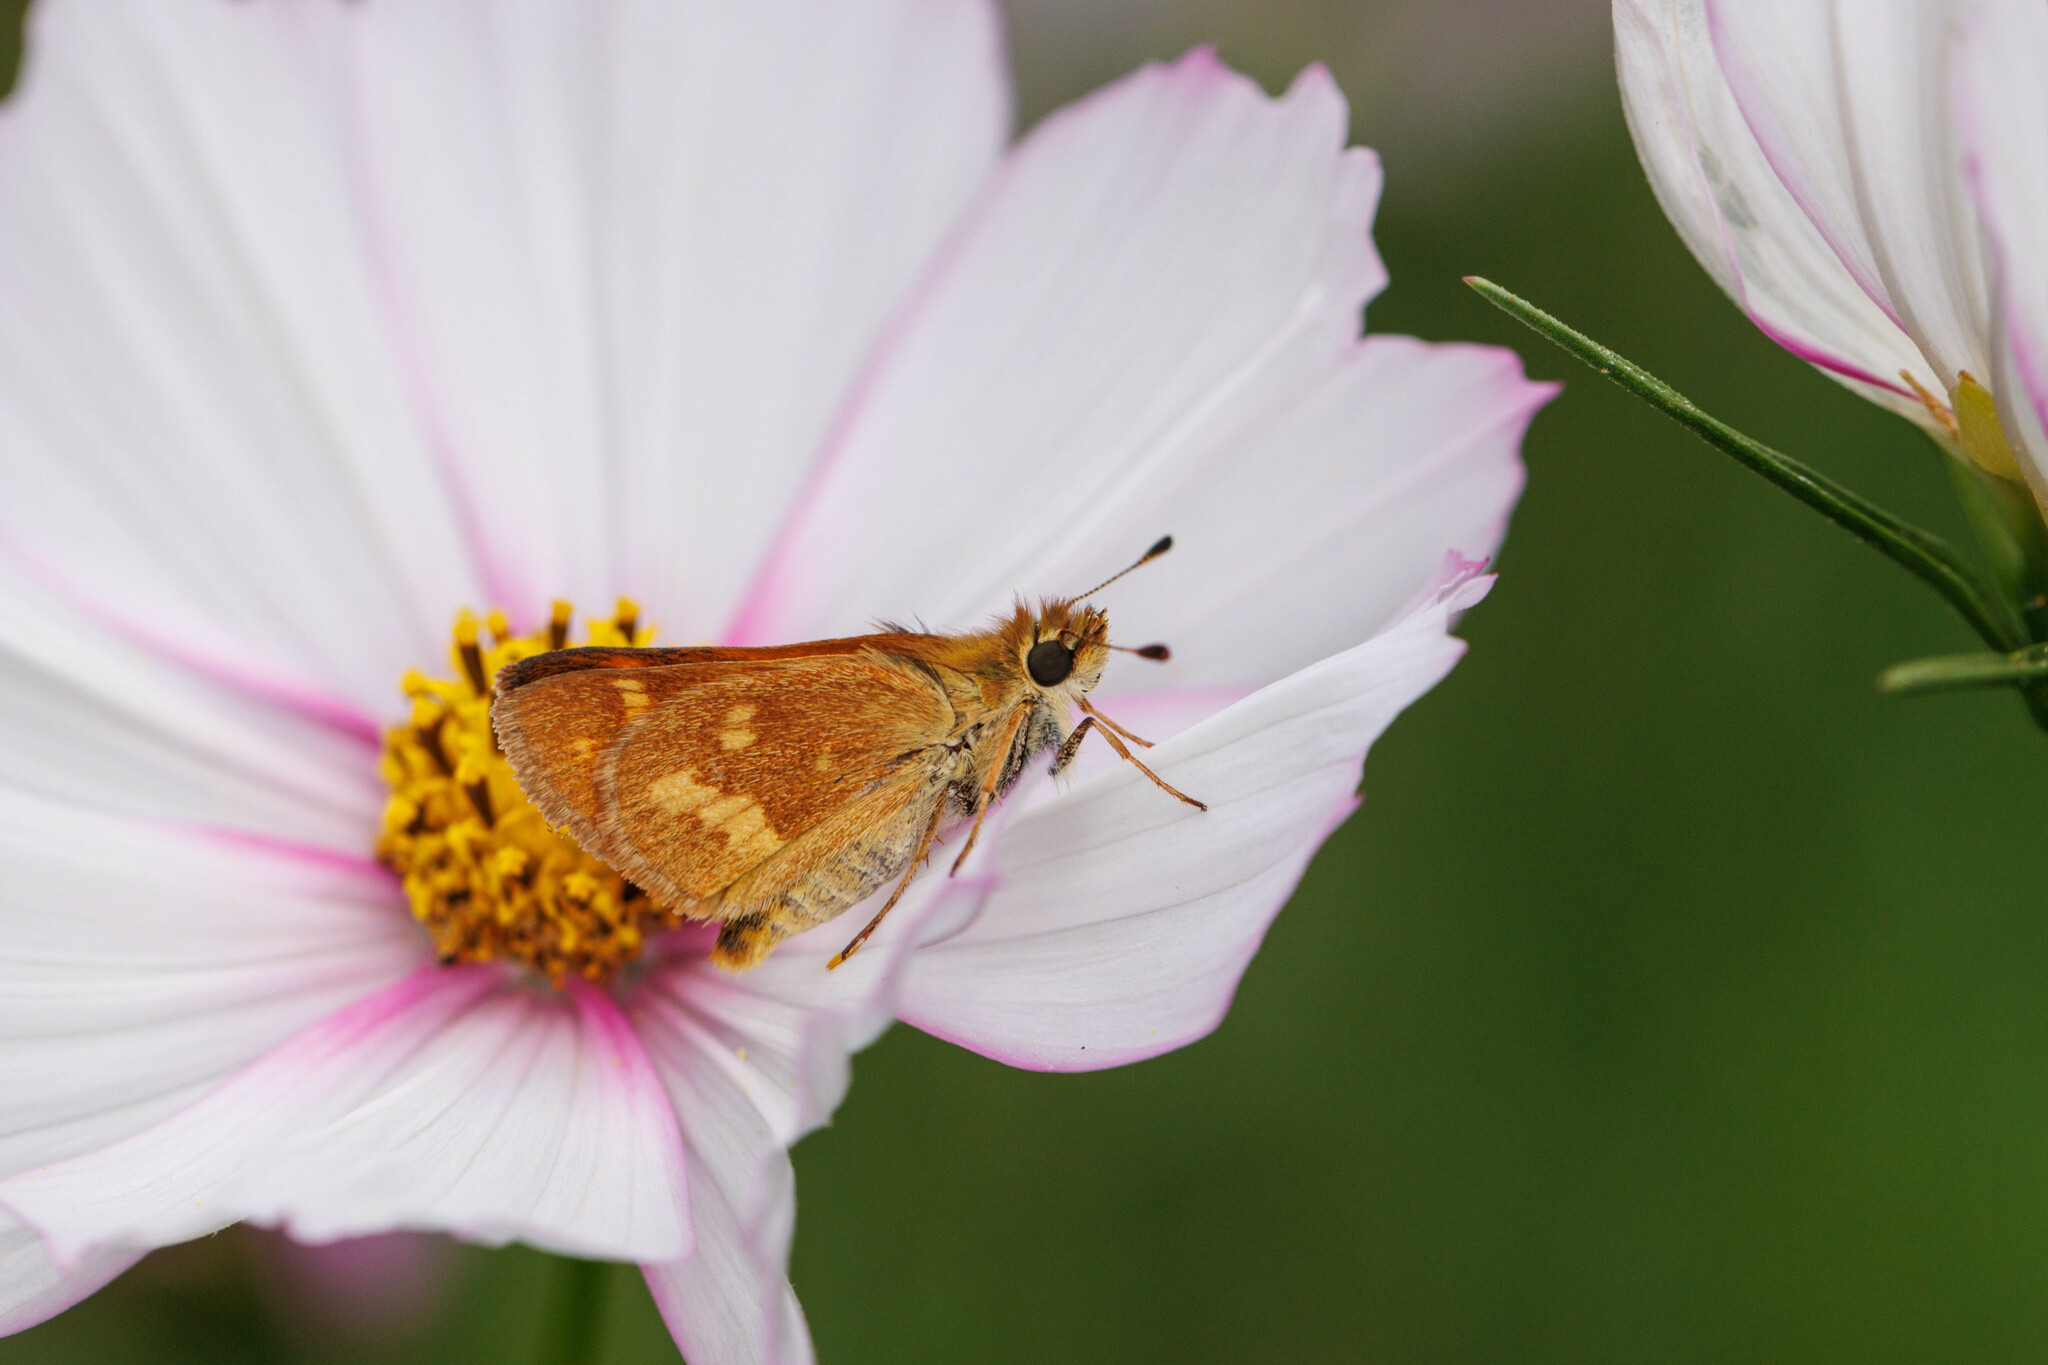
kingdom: Animalia
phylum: Arthropoda
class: Insecta
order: Lepidoptera
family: Hesperiidae
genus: Ochlodes
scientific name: Ochlodes sylvanoides
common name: Woodland skipper
